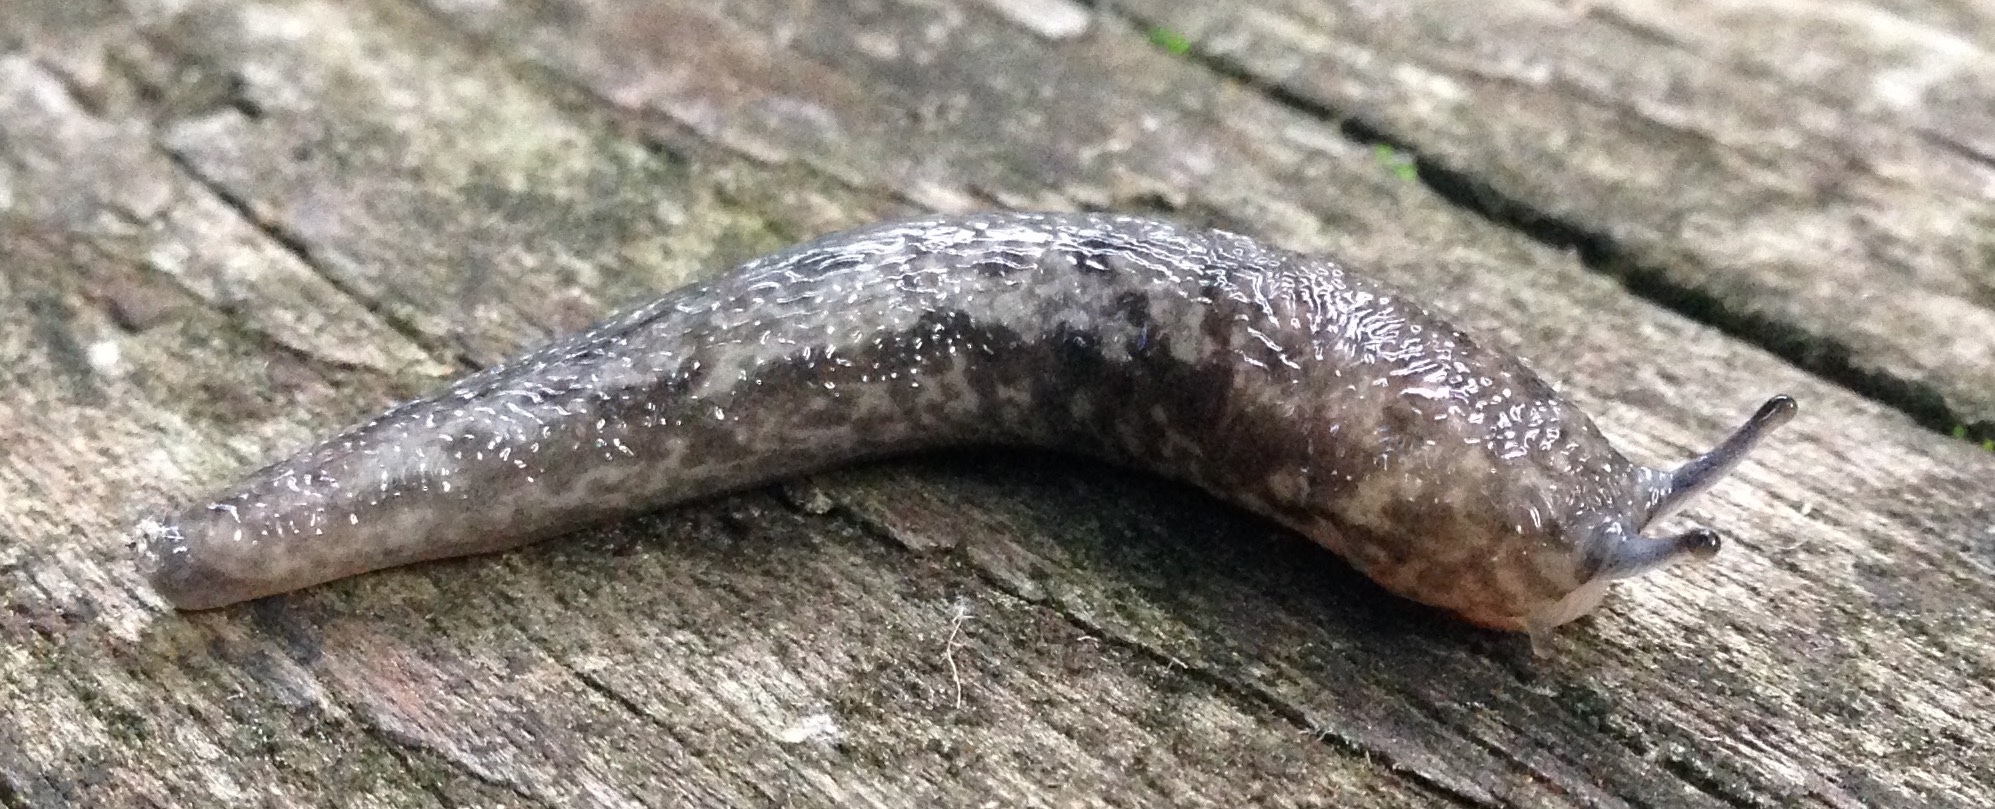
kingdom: Animalia
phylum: Mollusca
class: Gastropoda
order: Stylommatophora
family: Philomycidae
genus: Megapallifera
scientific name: Megapallifera mutabilis
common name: Changeable mantleslug
